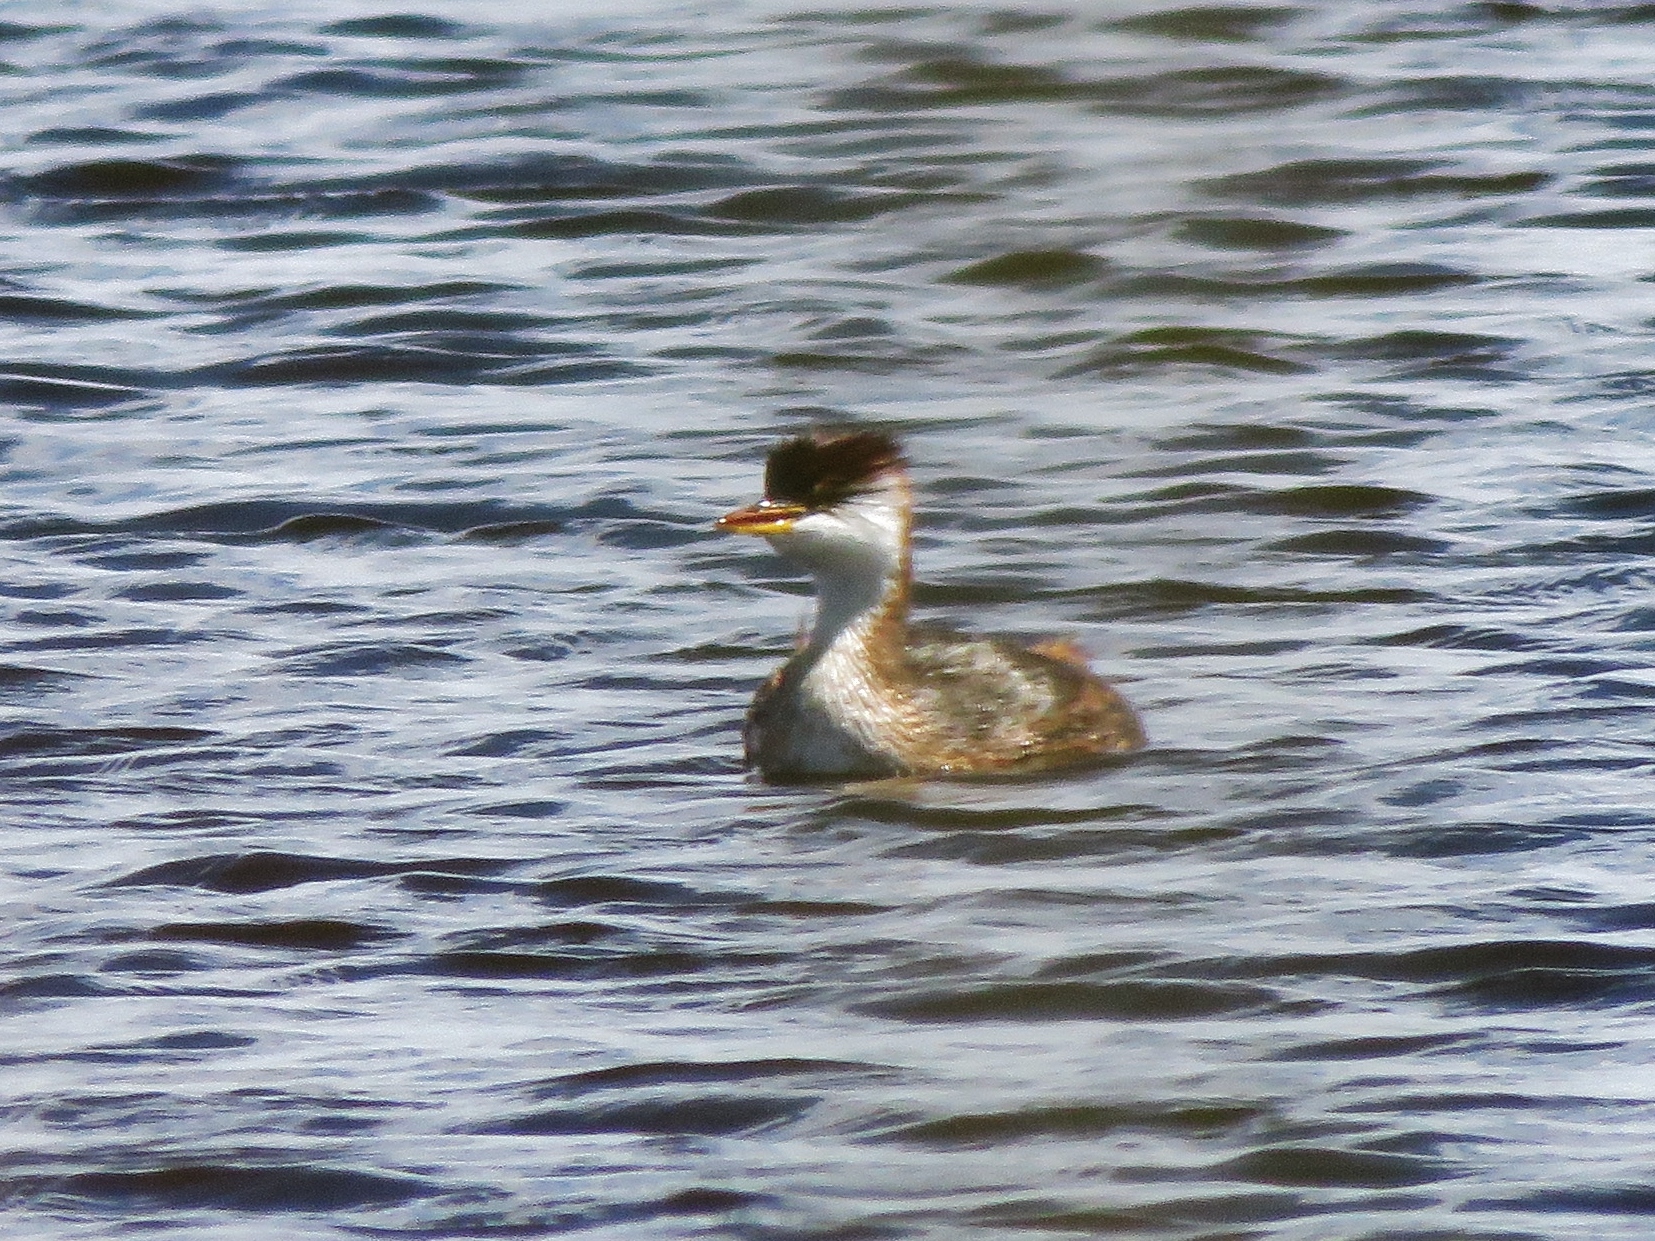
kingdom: Animalia
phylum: Chordata
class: Aves
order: Podicipediformes
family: Podicipedidae
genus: Rollandia
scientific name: Rollandia microptera
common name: Titicaca grebe
